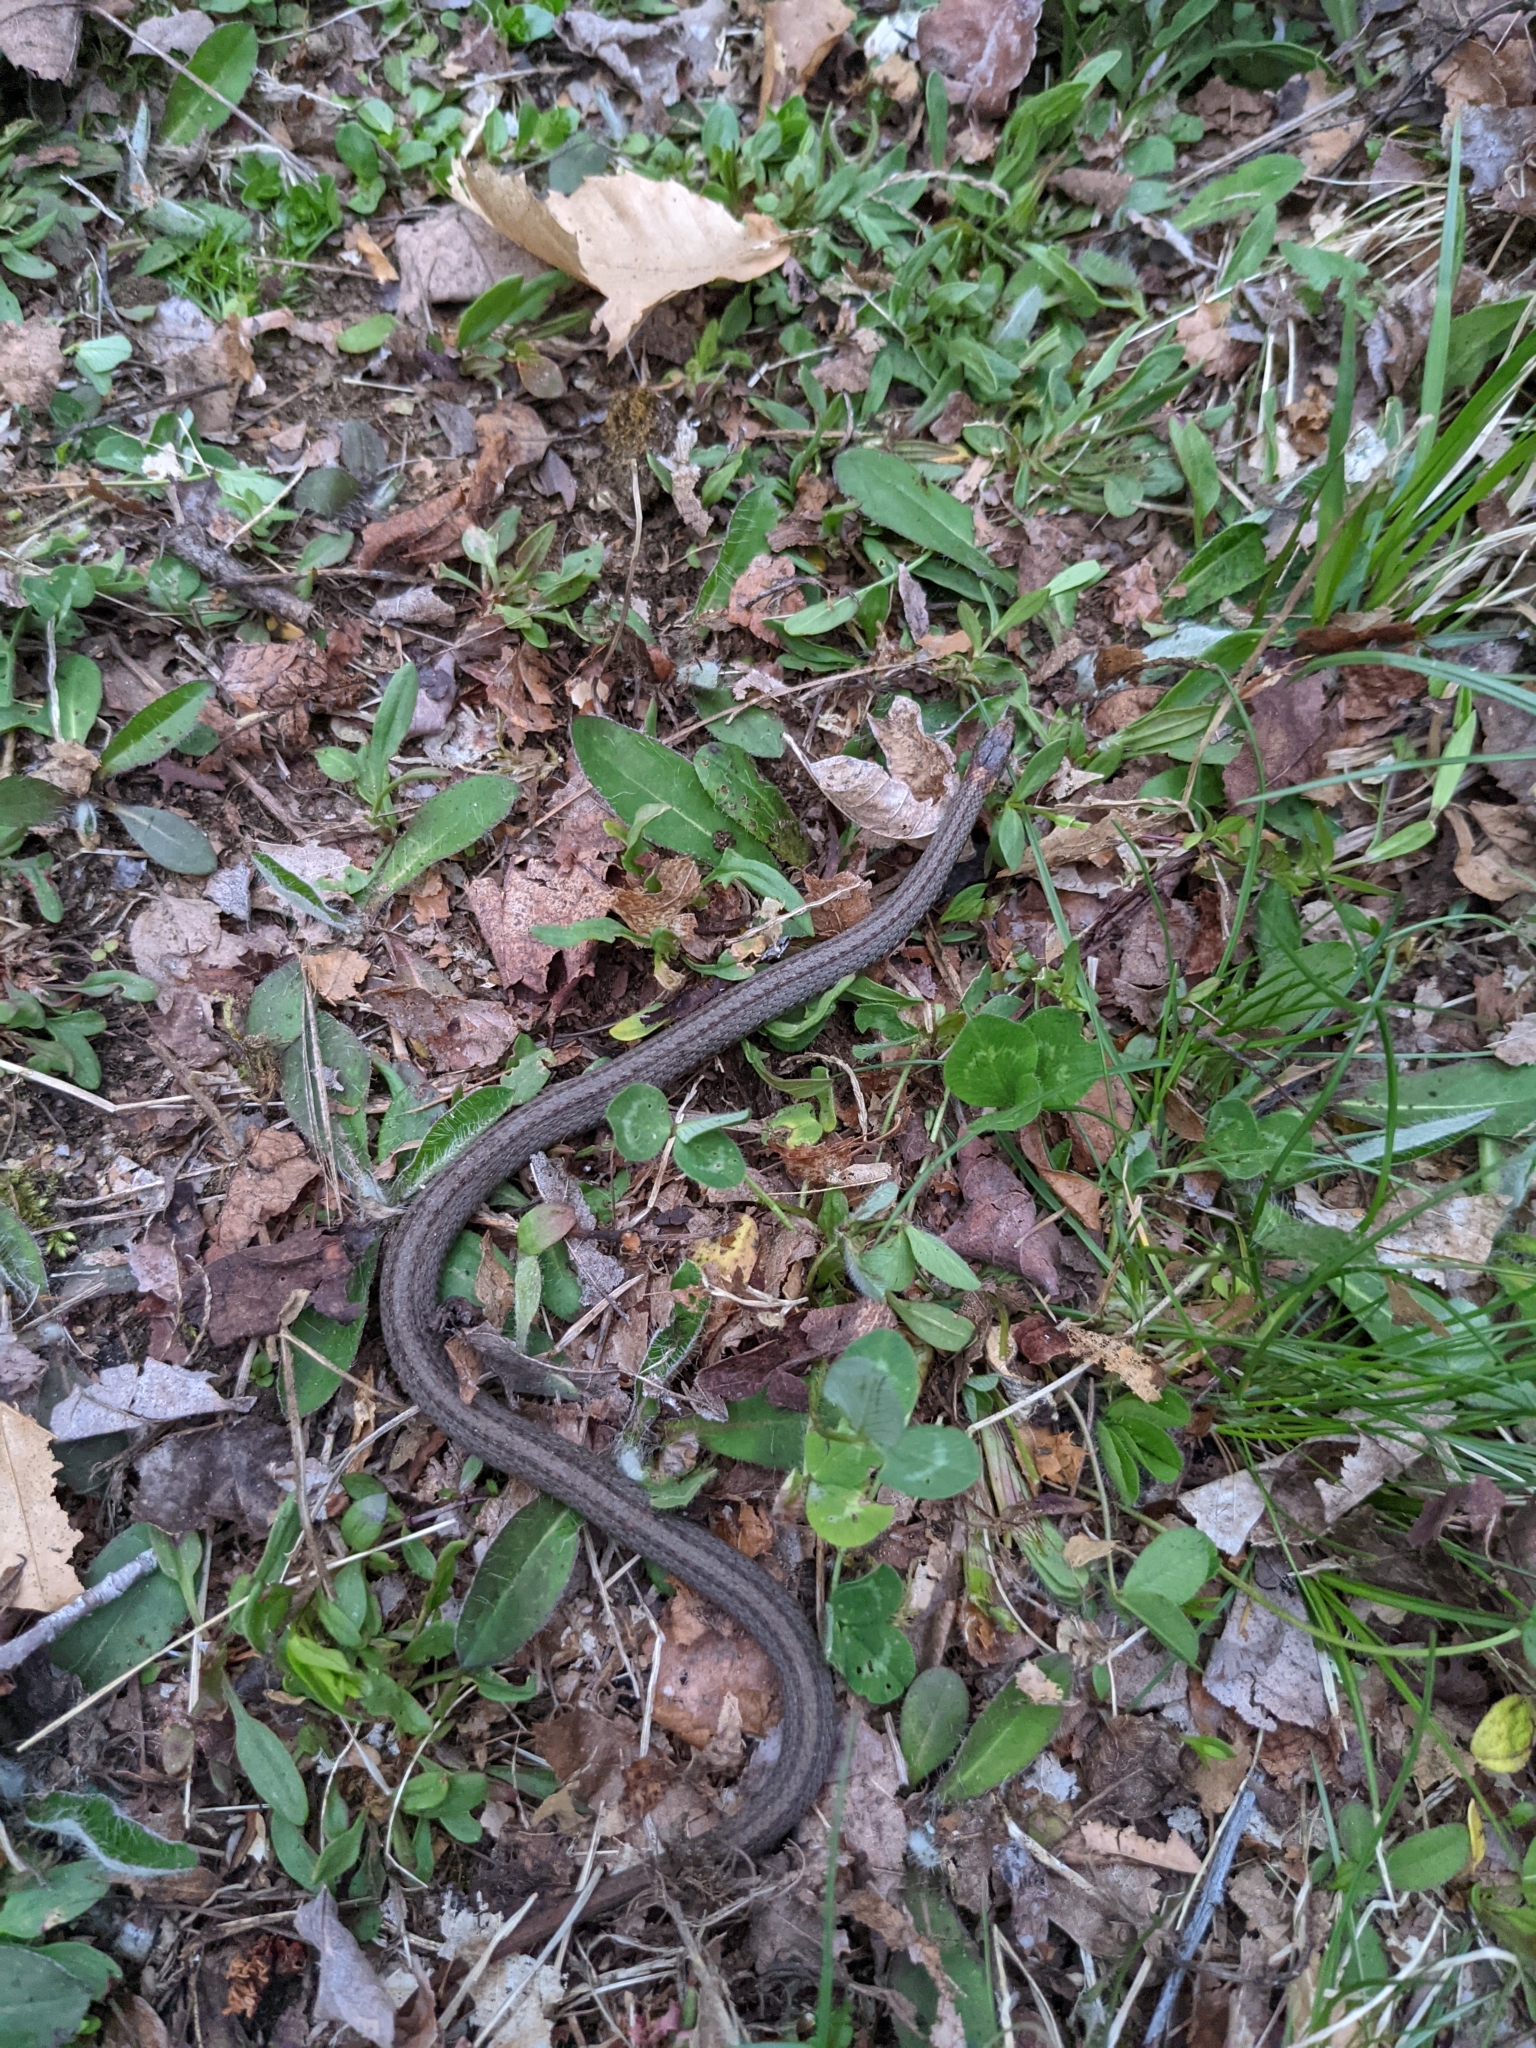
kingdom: Animalia
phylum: Chordata
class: Squamata
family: Colubridae
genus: Storeria
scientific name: Storeria occipitomaculata
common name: Redbelly snake
